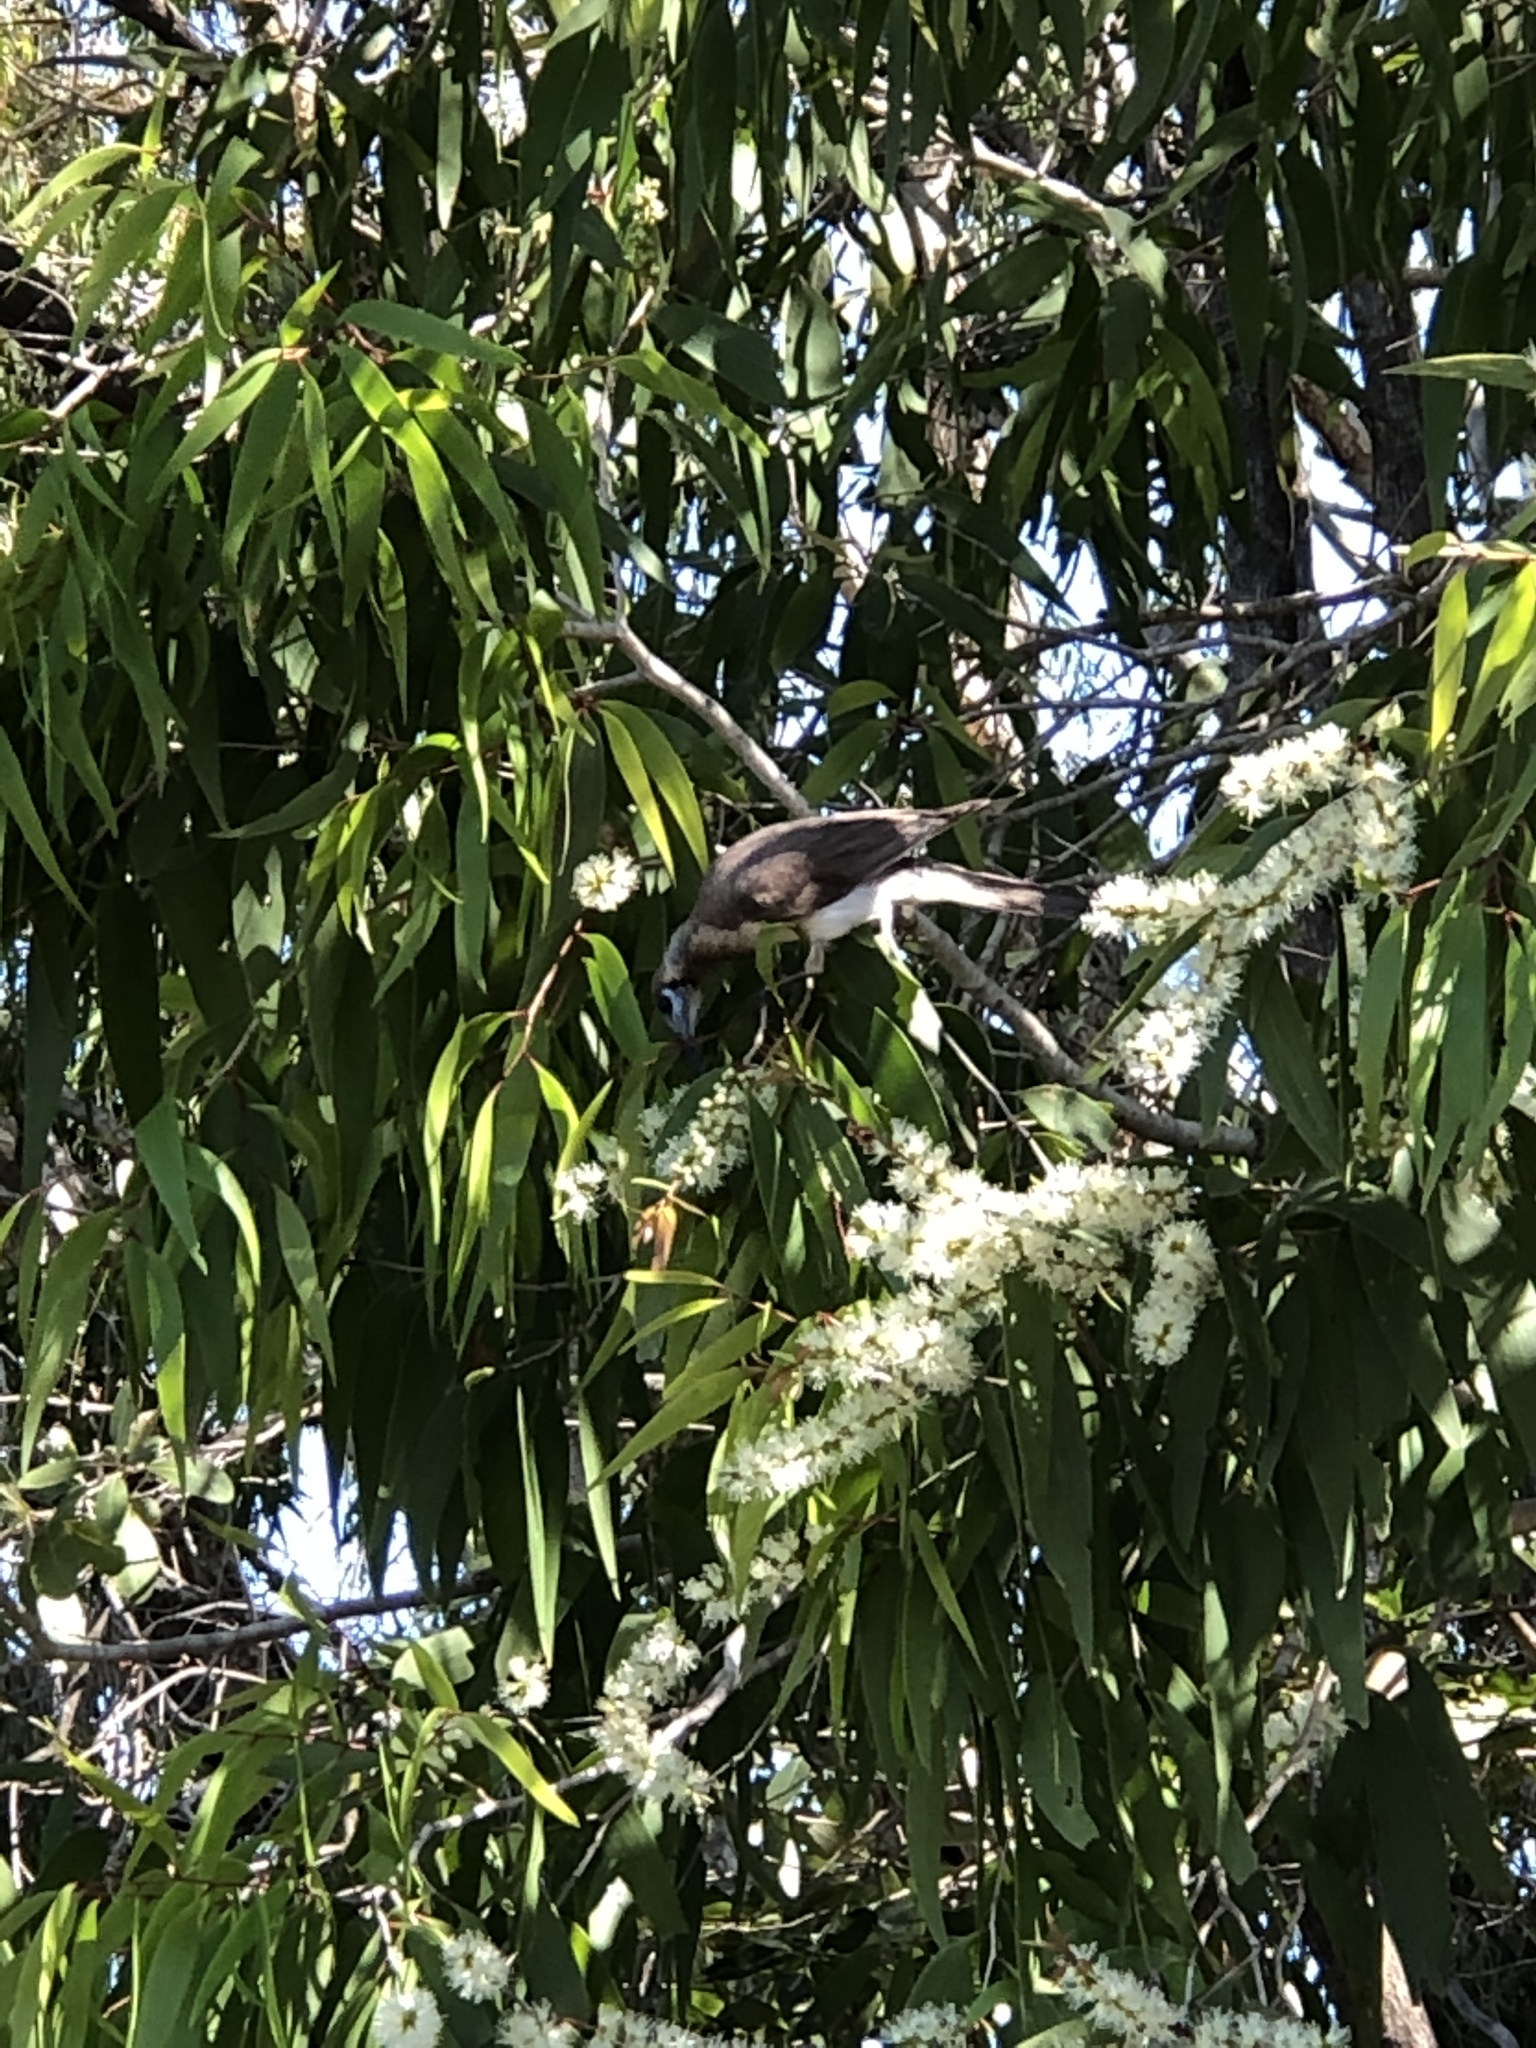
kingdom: Animalia
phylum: Chordata
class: Aves
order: Passeriformes
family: Meliphagidae
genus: Philemon
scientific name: Philemon citreogularis
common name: Little friarbird
